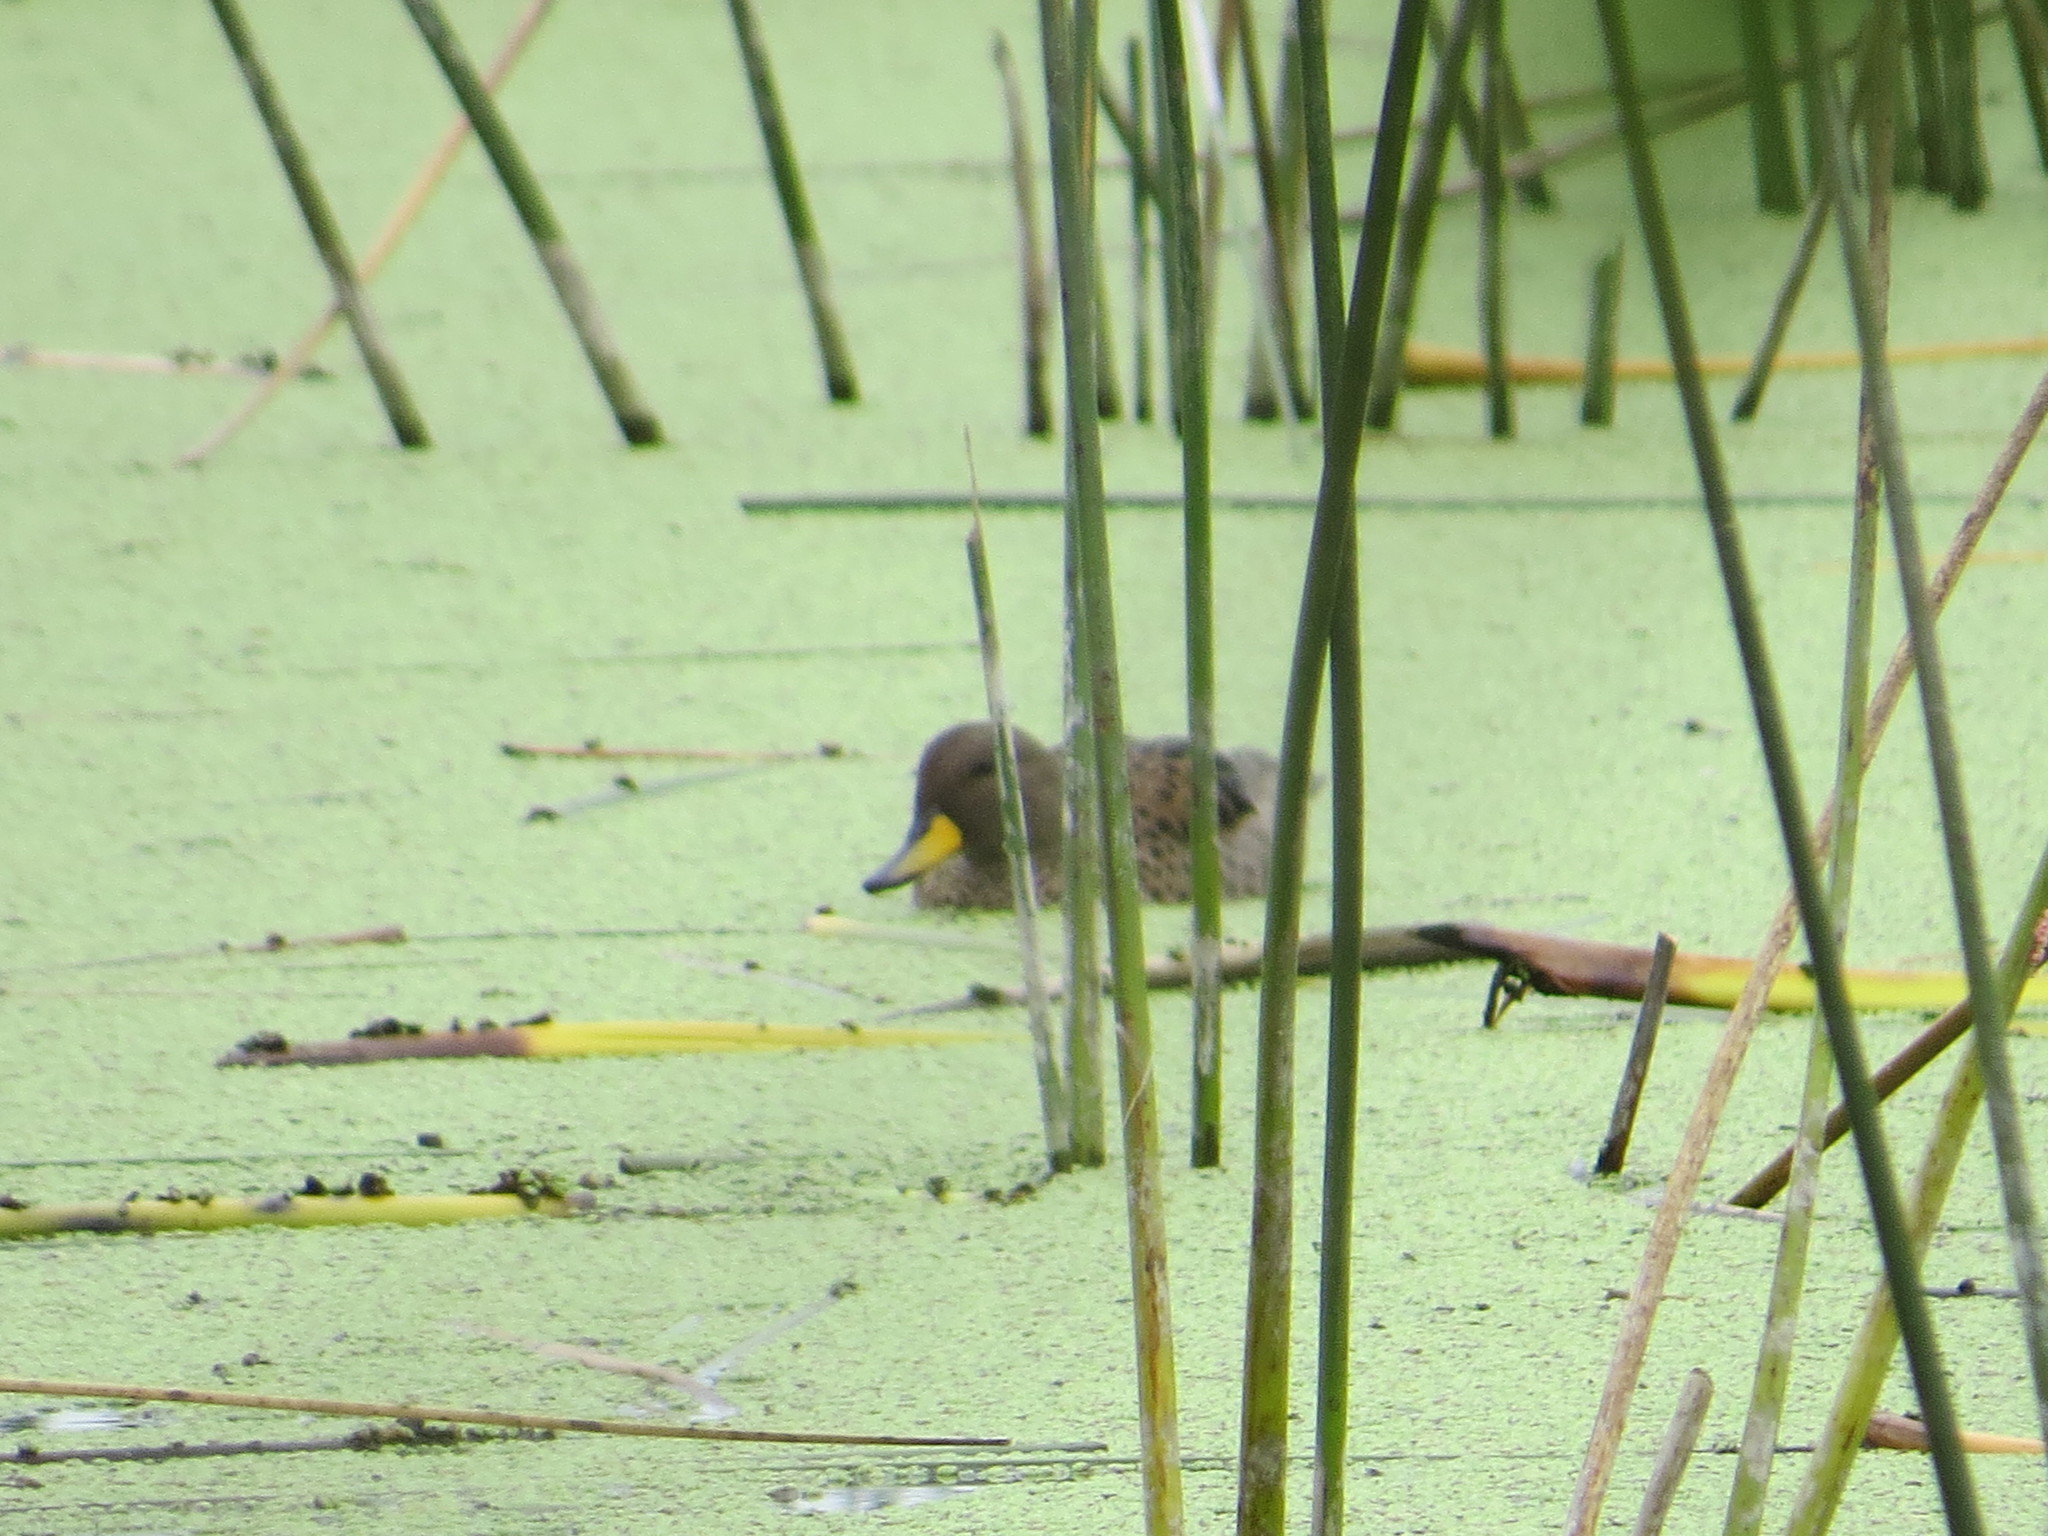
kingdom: Animalia
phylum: Chordata
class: Aves
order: Anseriformes
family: Anatidae
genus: Anas
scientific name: Anas flavirostris
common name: Yellow-billed teal
